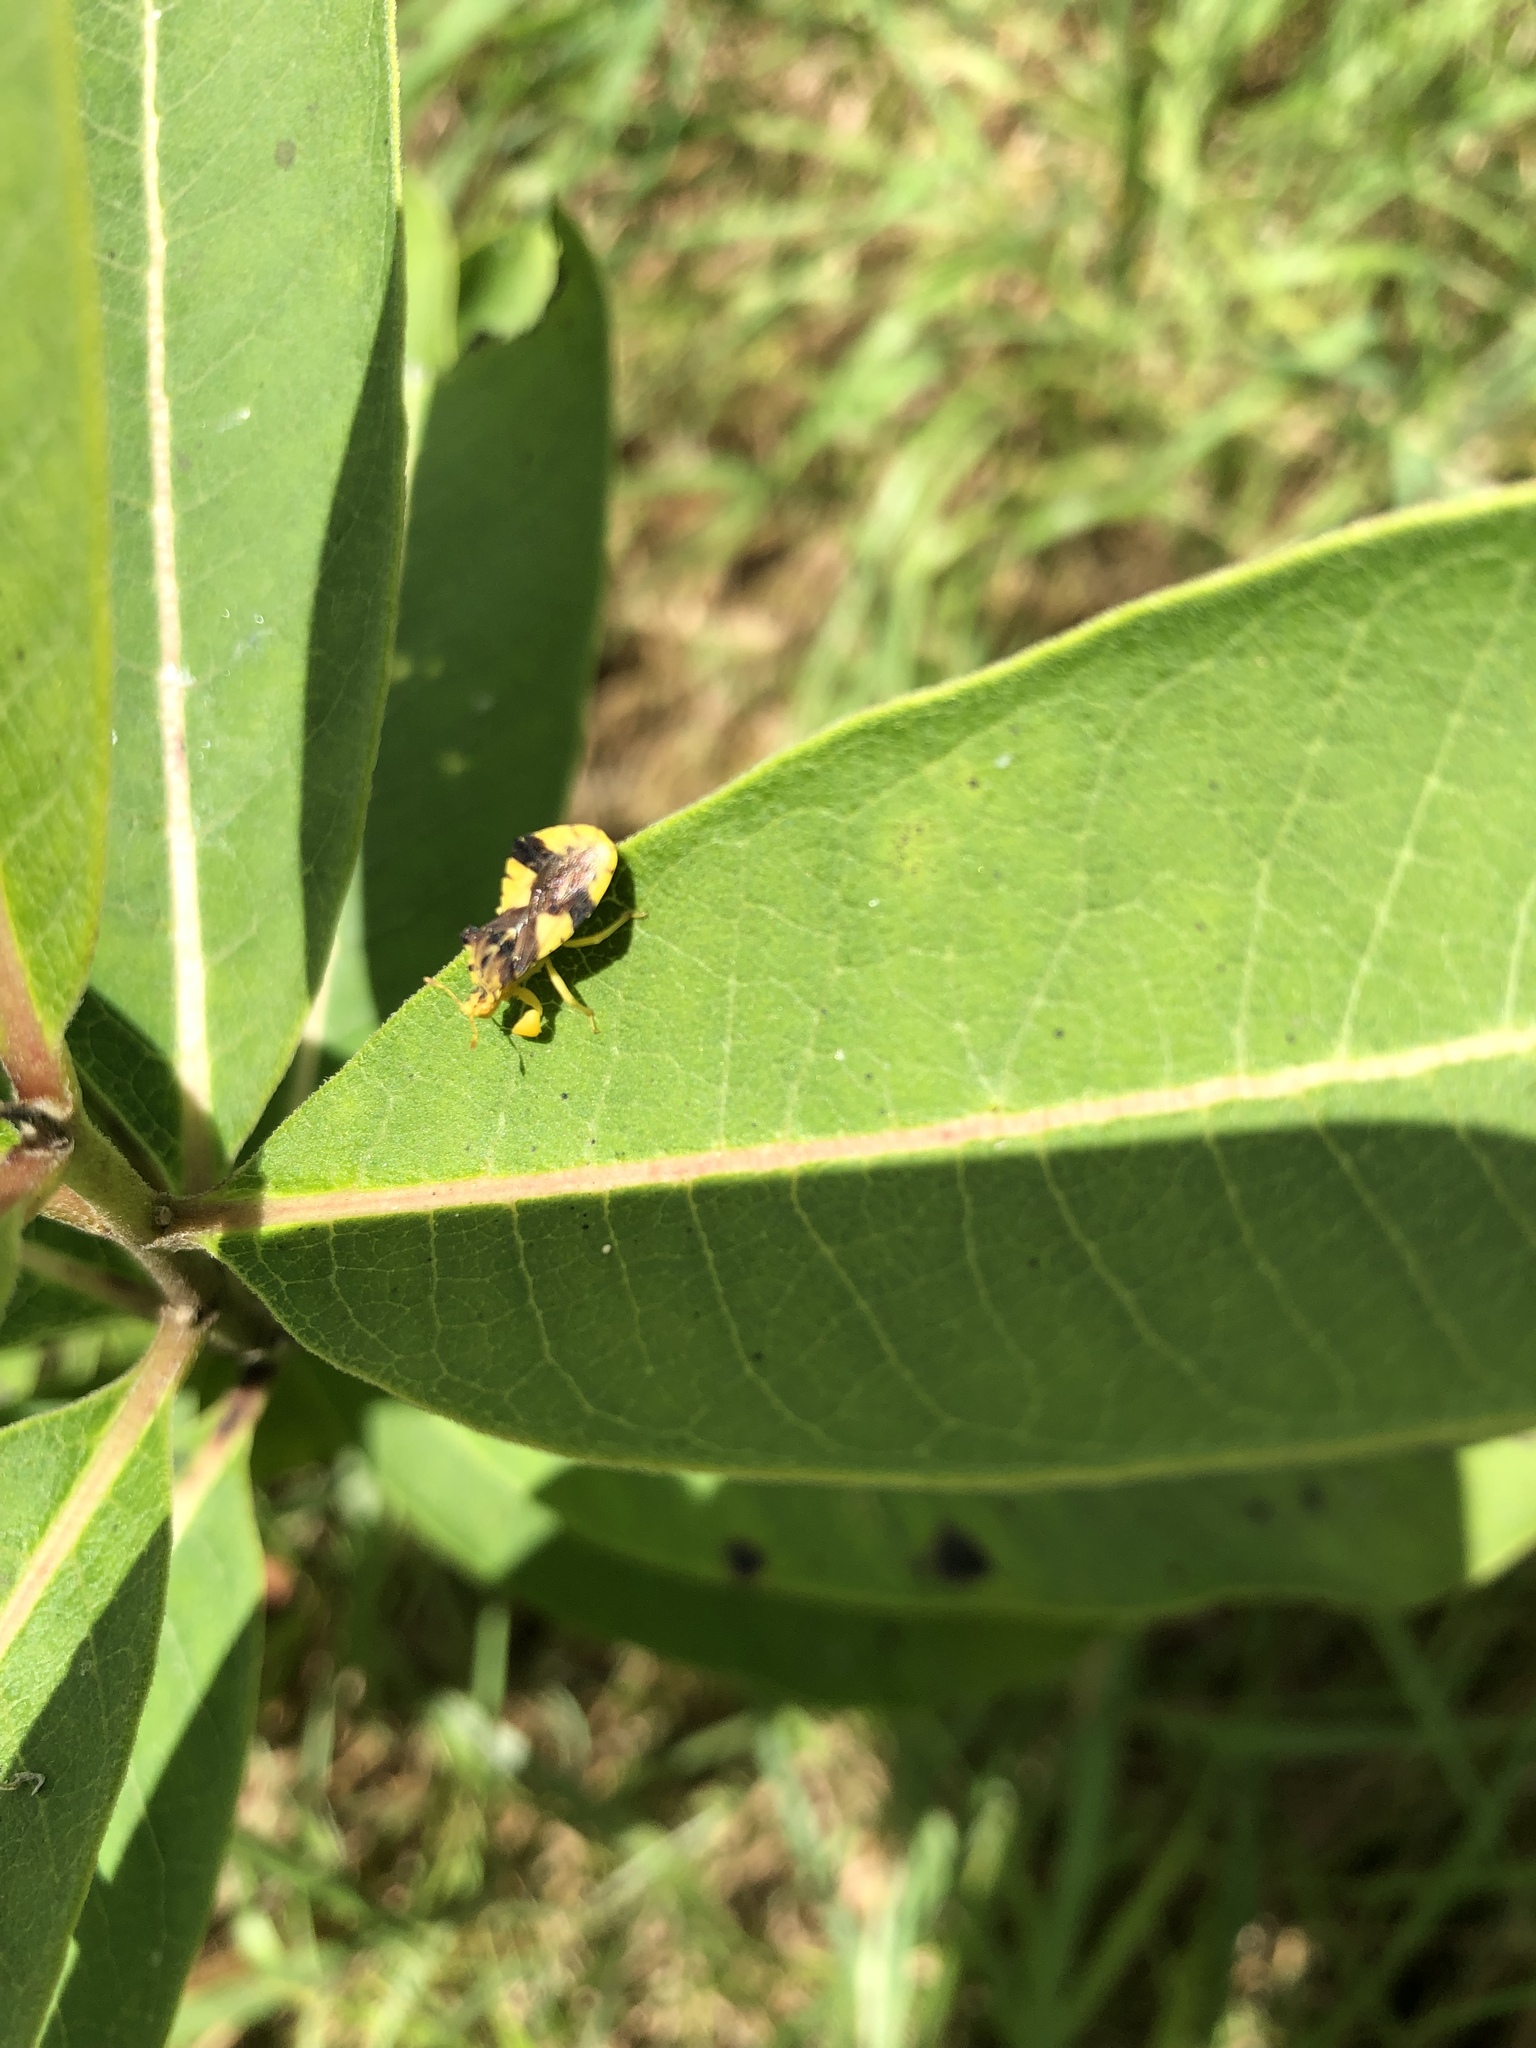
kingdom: Animalia
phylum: Arthropoda
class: Insecta
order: Hemiptera
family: Reduviidae
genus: Phymata
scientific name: Phymata americana
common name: Jagged ambush bug
